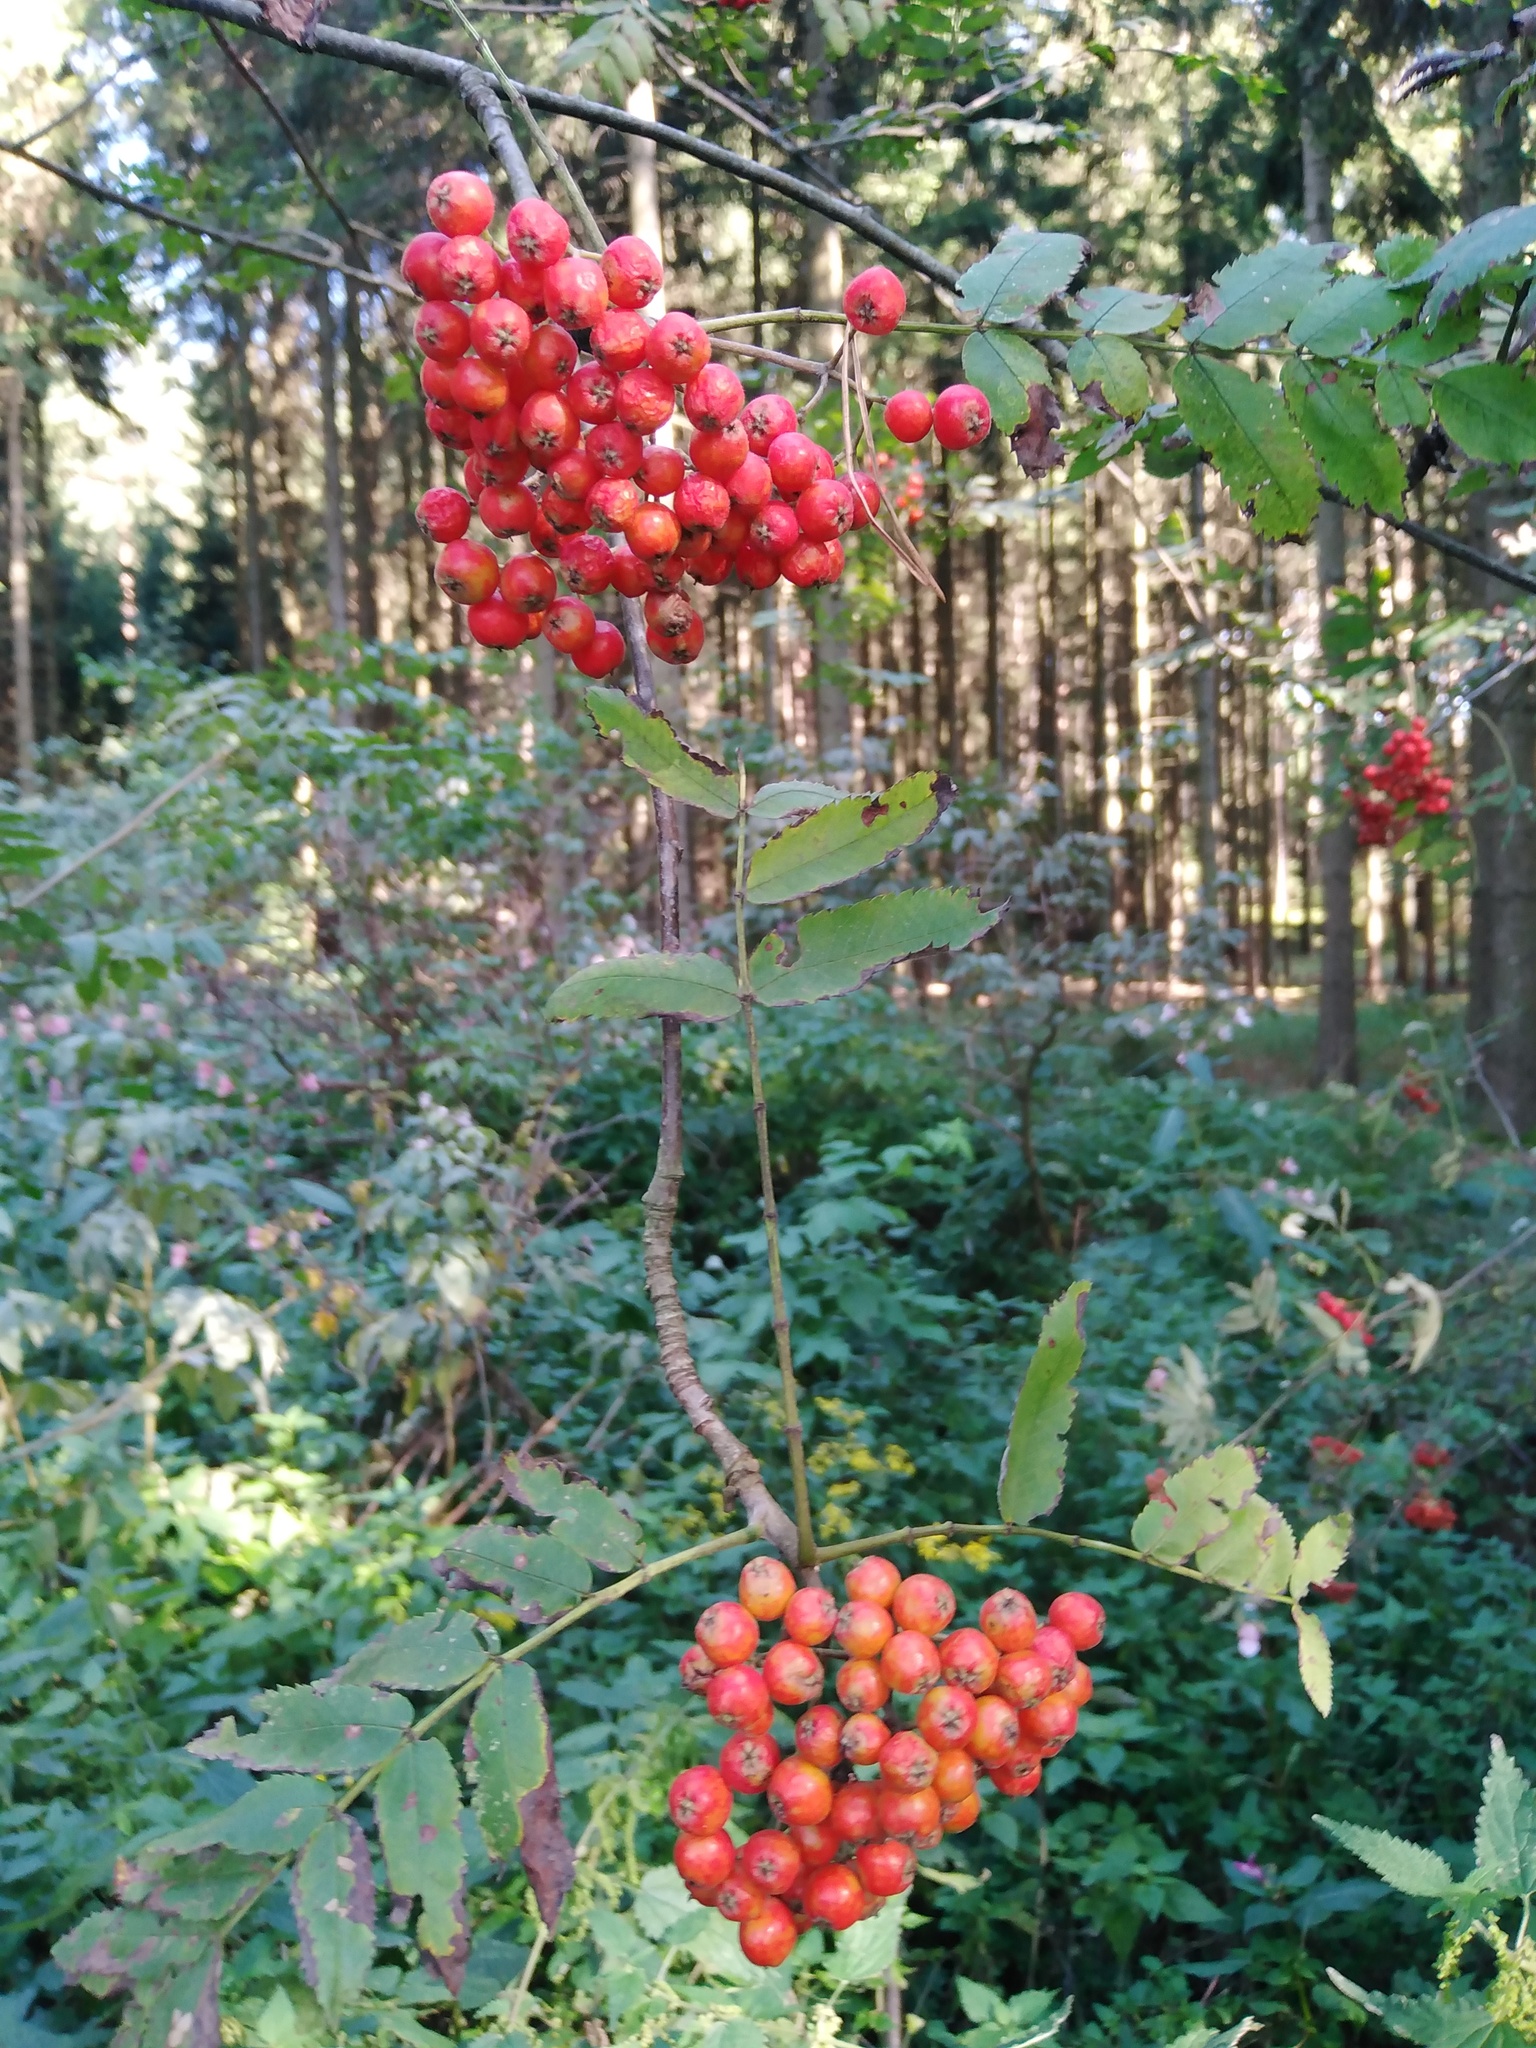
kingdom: Plantae
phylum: Tracheophyta
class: Magnoliopsida
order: Rosales
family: Rosaceae
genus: Sorbus
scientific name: Sorbus aucuparia
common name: Rowan
